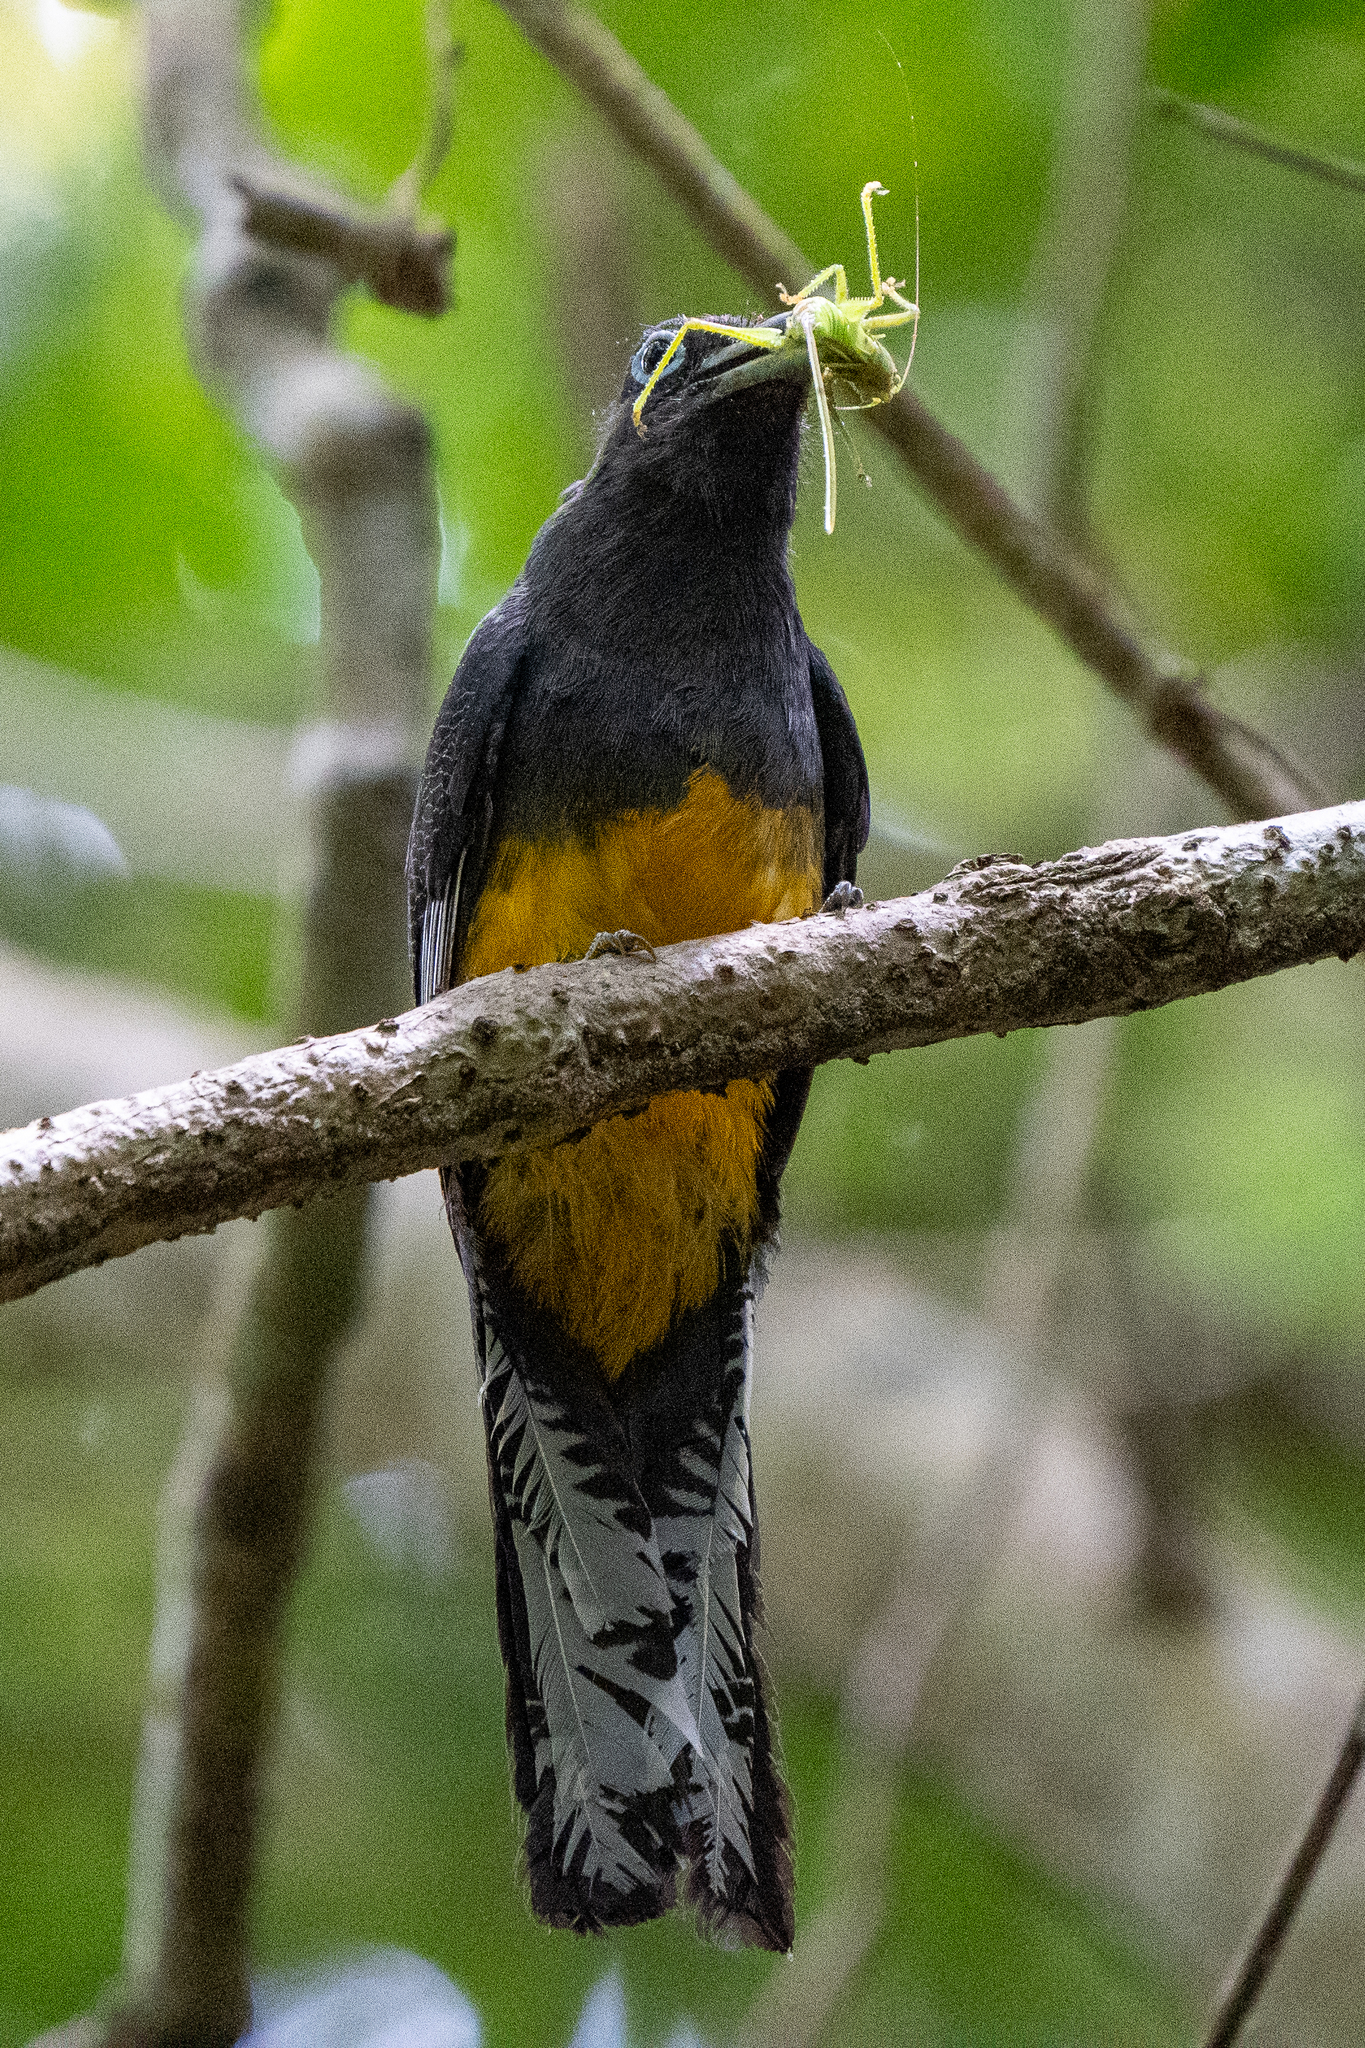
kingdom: Animalia
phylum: Chordata
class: Aves
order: Trogoniformes
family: Trogonidae
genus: Trogon
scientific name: Trogon chionurus
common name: White-tailed trogon
